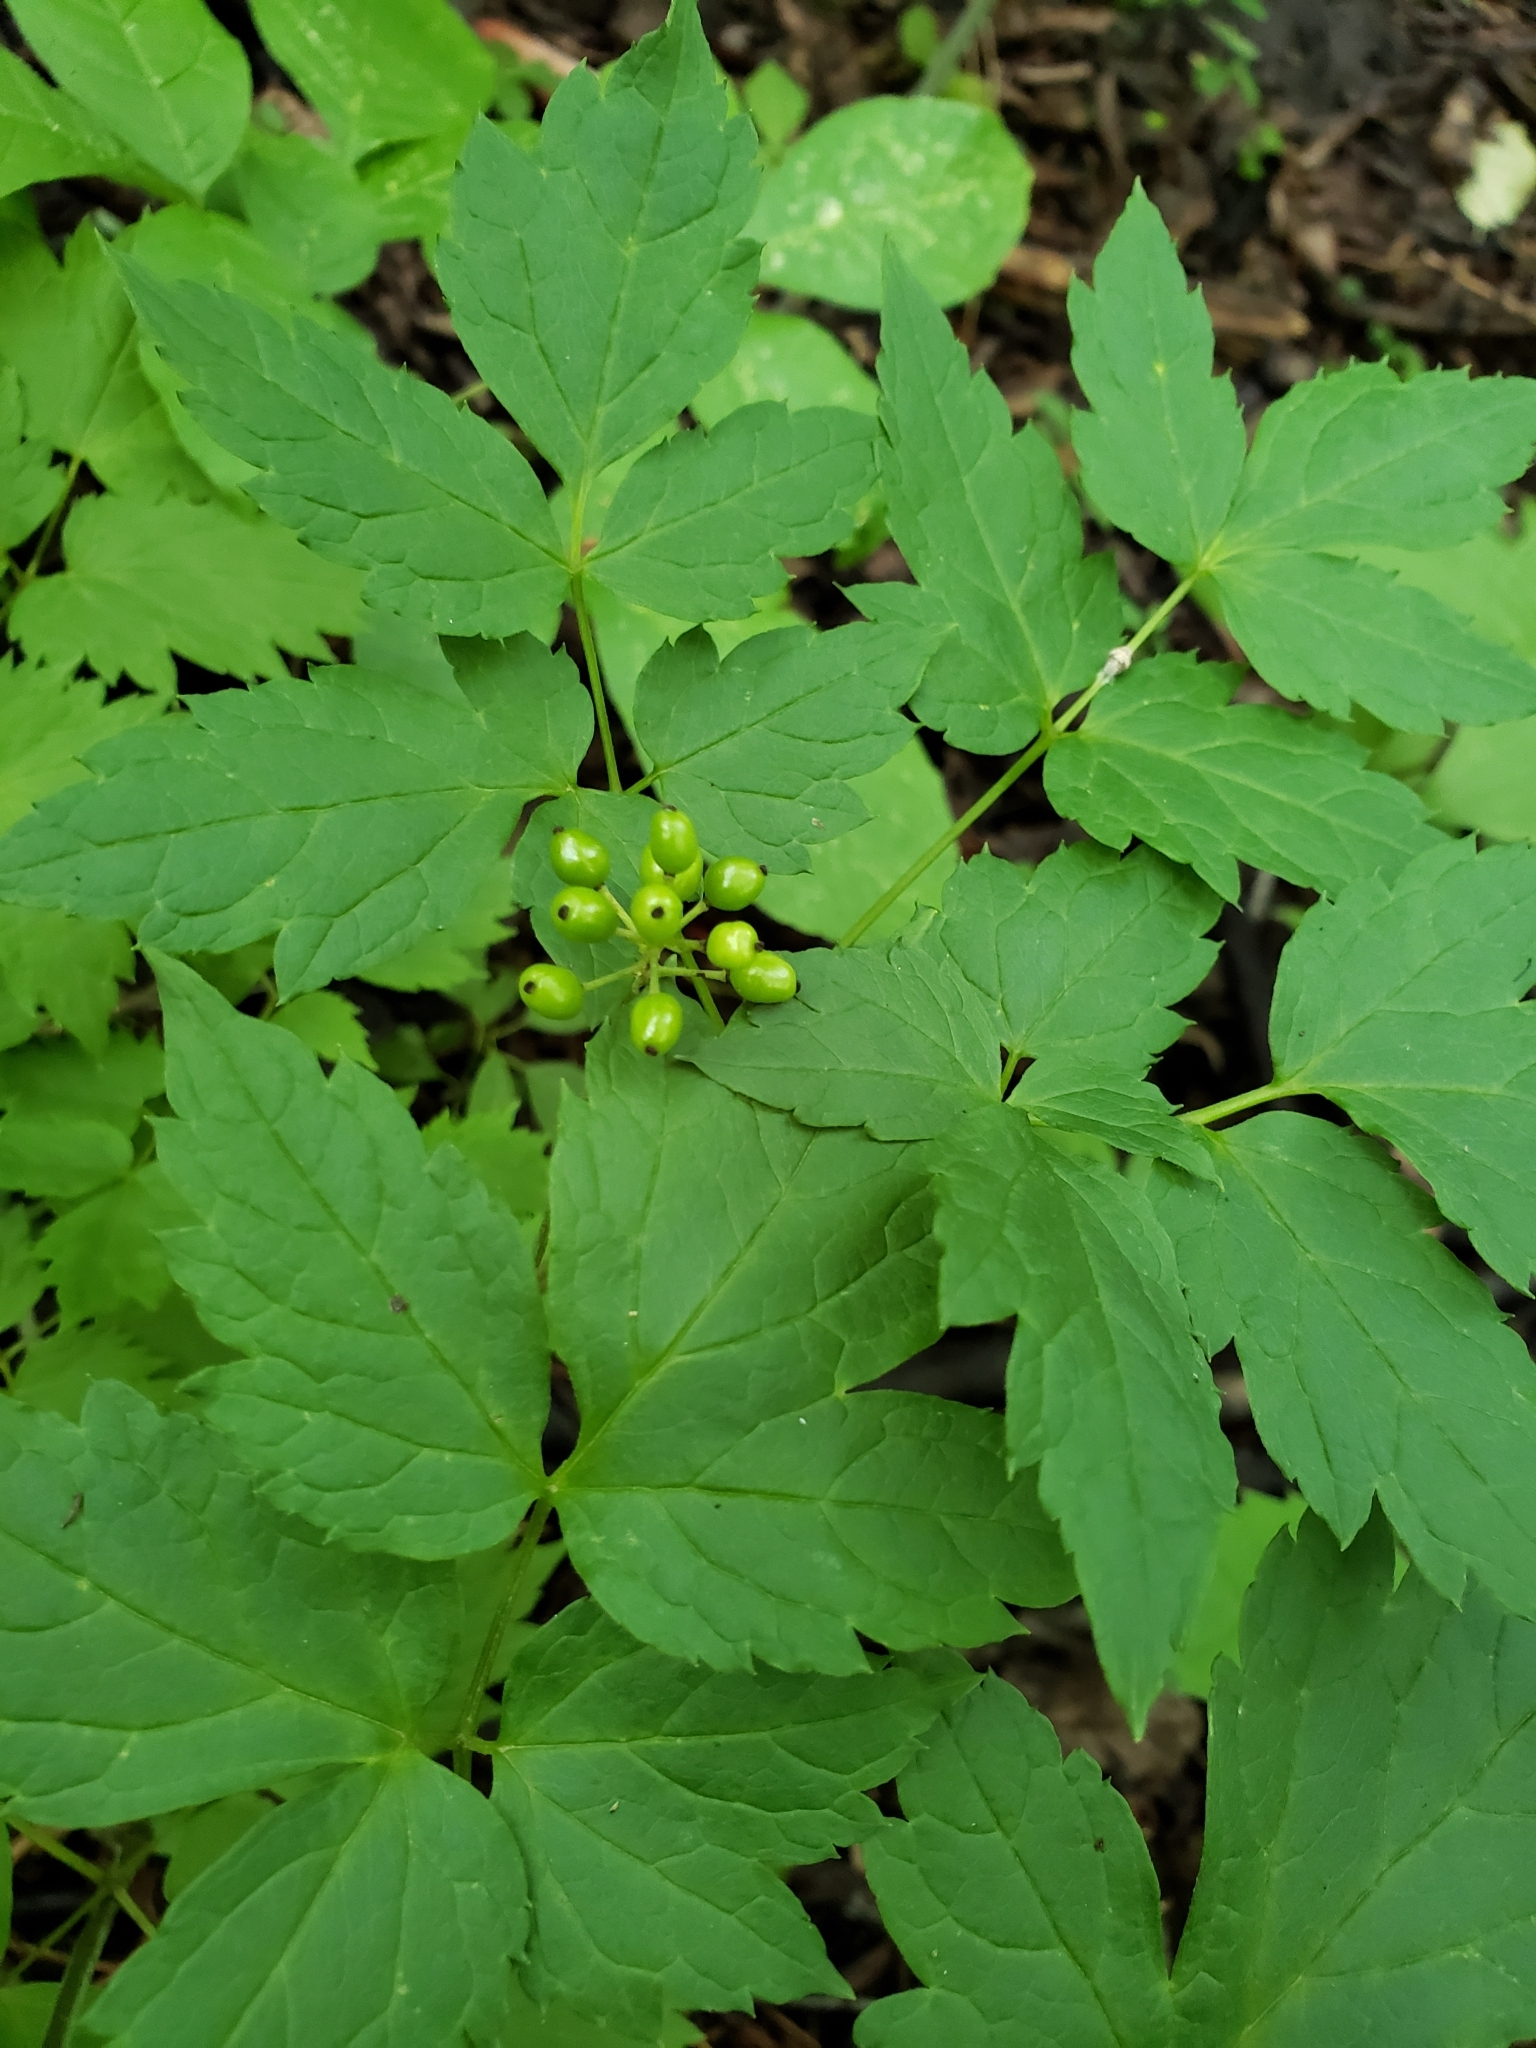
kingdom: Plantae
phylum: Tracheophyta
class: Magnoliopsida
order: Ranunculales
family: Ranunculaceae
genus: Actaea
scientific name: Actaea pachypoda
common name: Doll's-eyes
